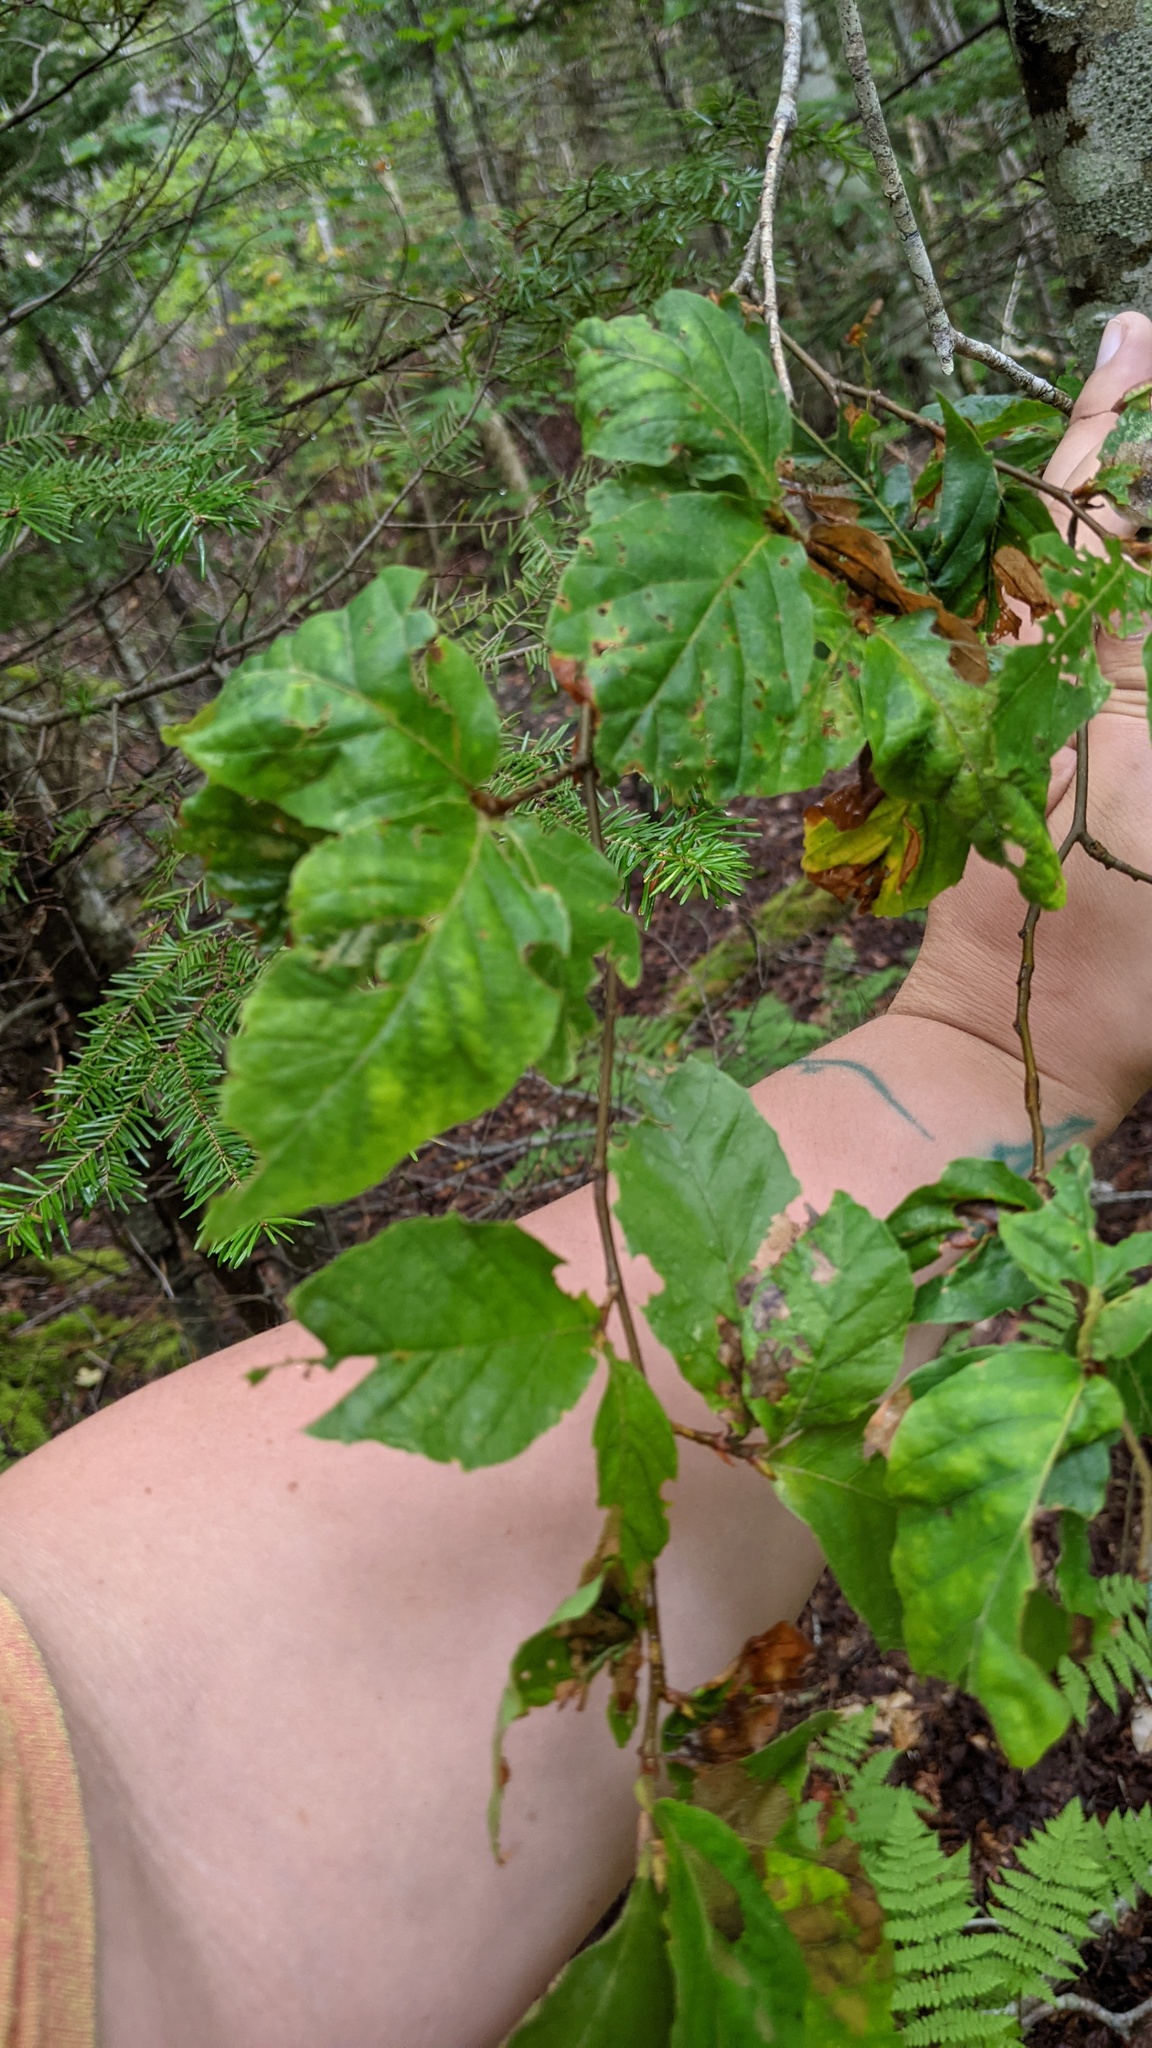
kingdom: Plantae
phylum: Tracheophyta
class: Magnoliopsida
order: Fagales
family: Fagaceae
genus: Fagus
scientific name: Fagus grandifolia
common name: American beech
